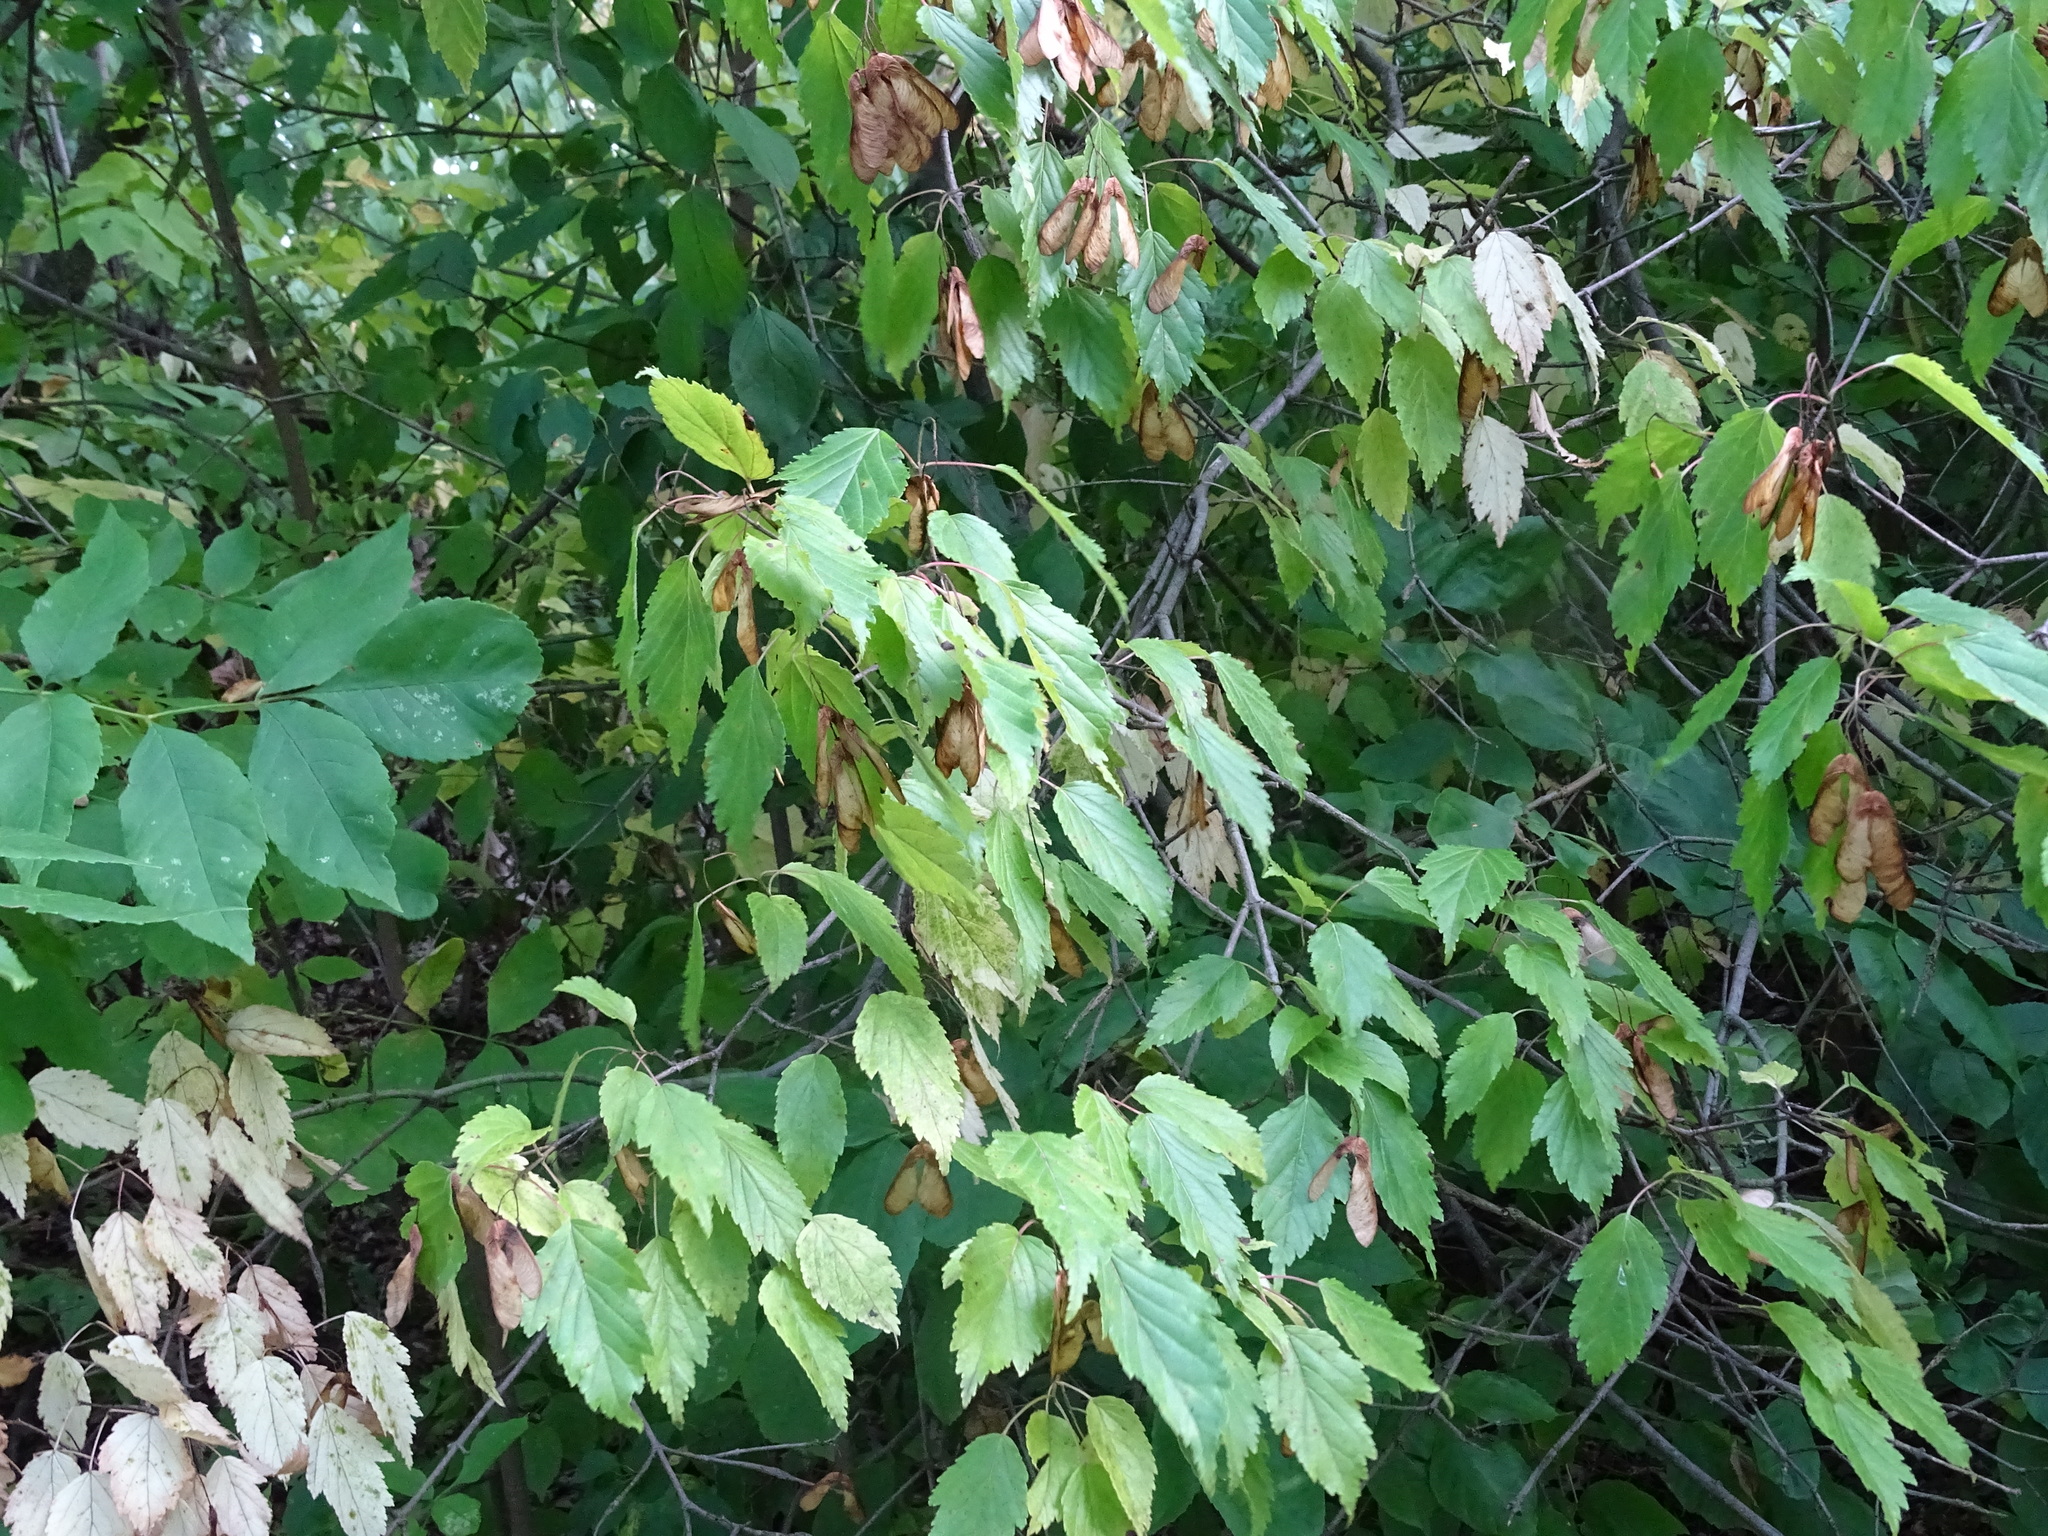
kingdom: Plantae
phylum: Tracheophyta
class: Magnoliopsida
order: Sapindales
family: Sapindaceae
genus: Acer
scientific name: Acer tataricum
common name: Tartar maple
